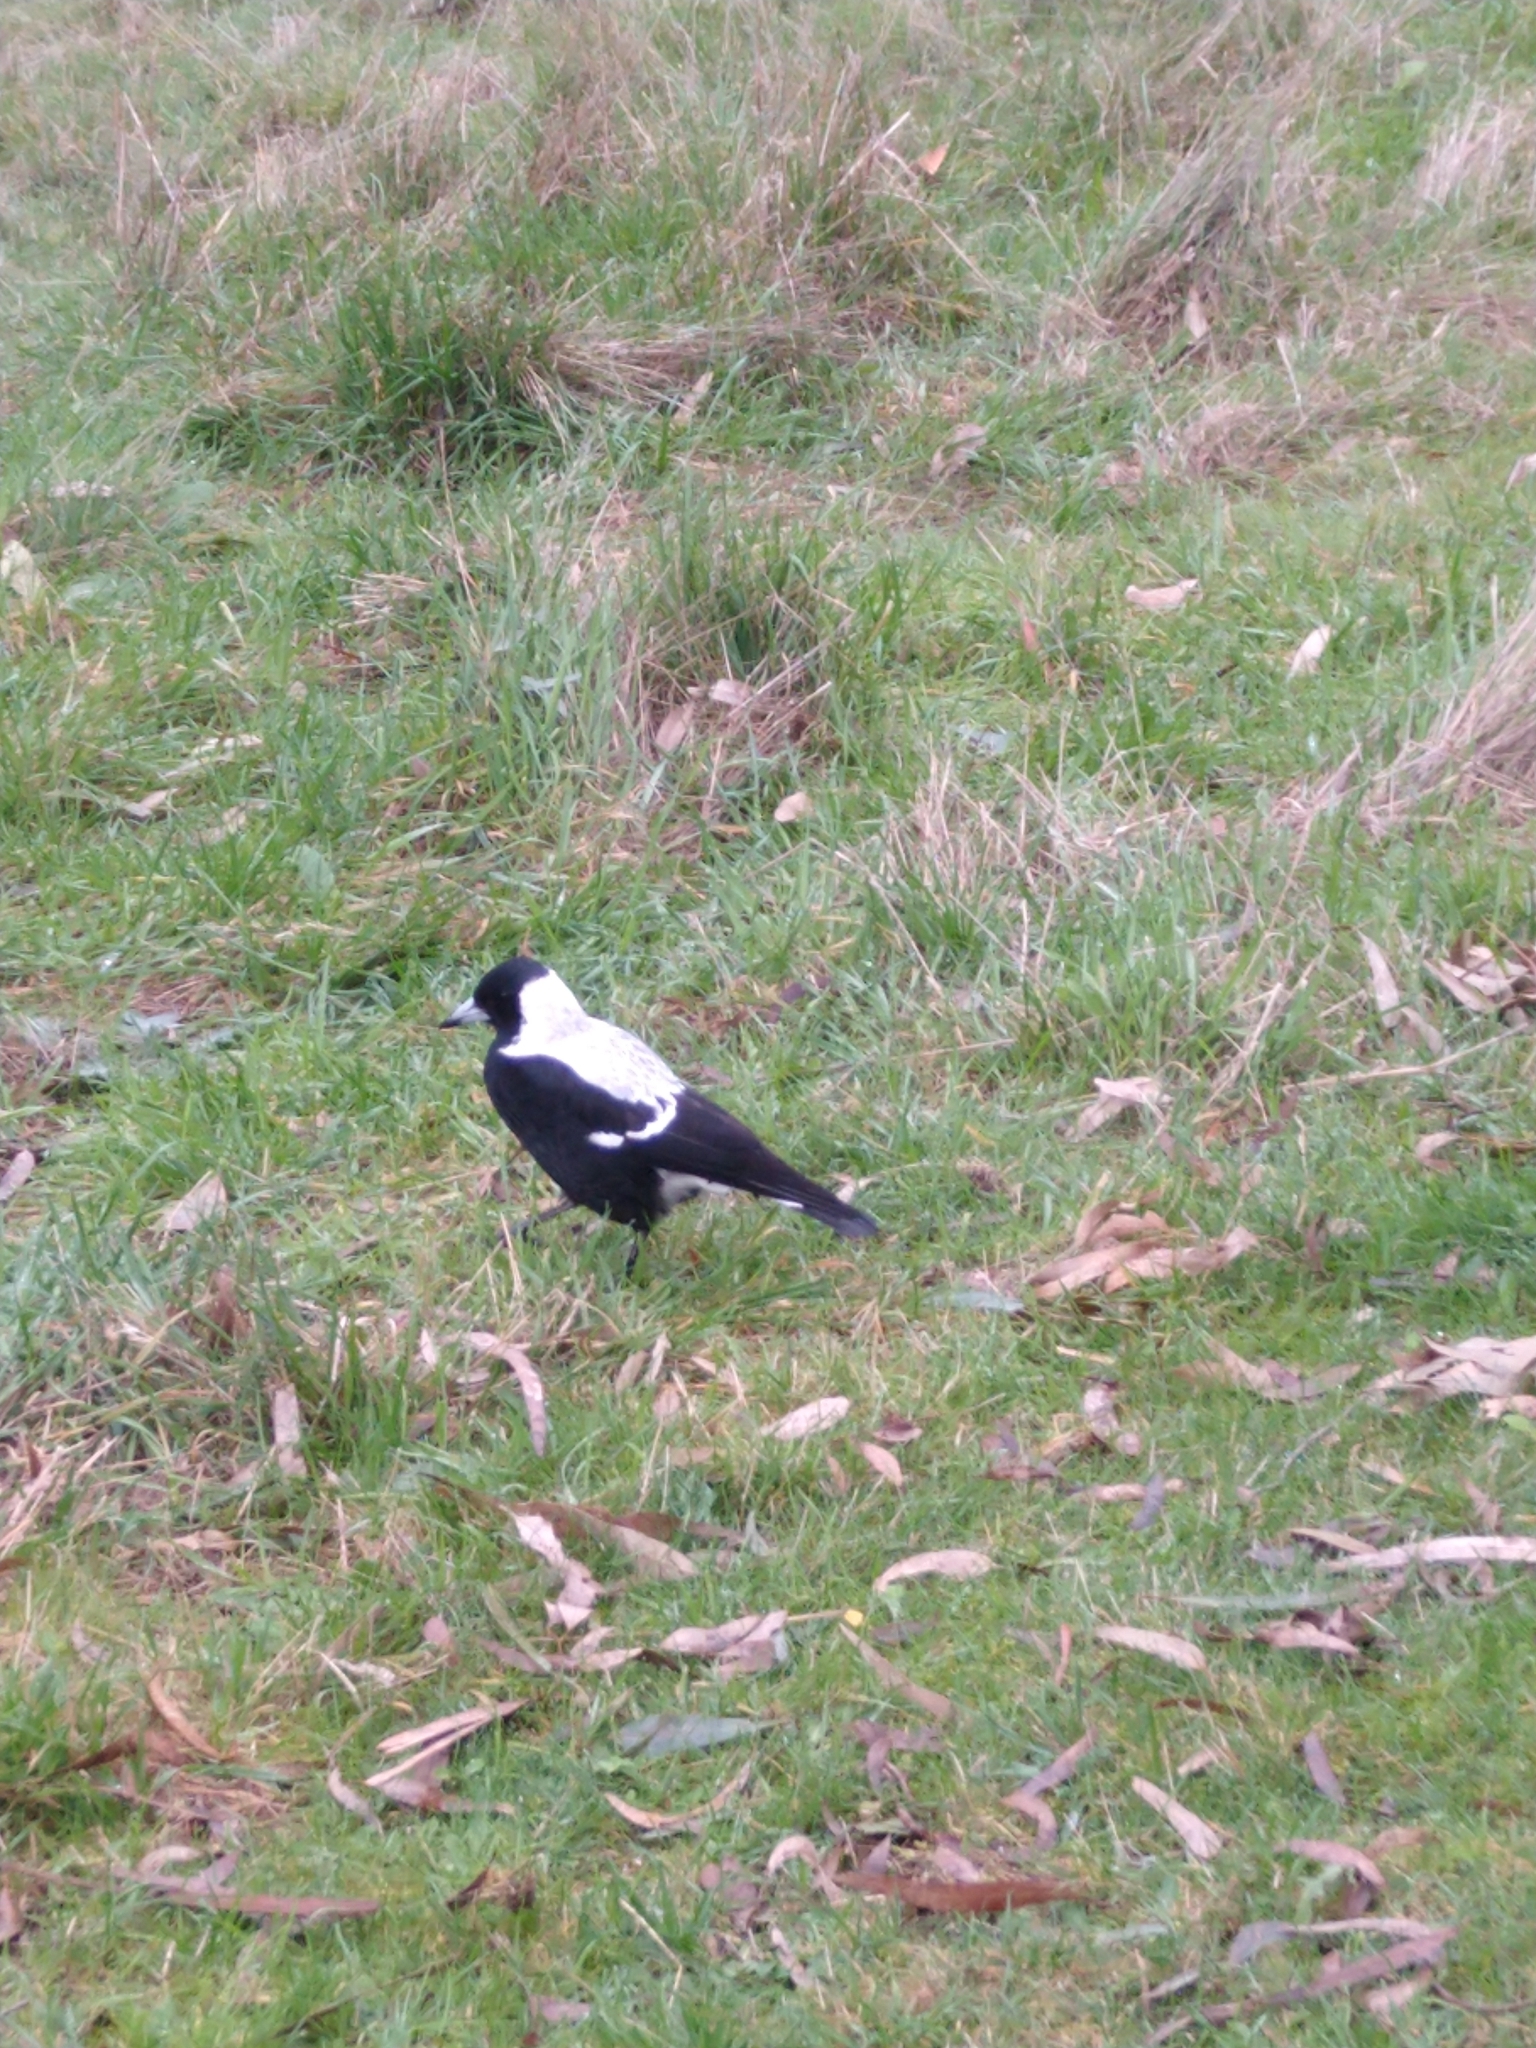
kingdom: Animalia
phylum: Chordata
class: Aves
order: Passeriformes
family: Cracticidae
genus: Gymnorhina
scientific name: Gymnorhina tibicen
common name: Australian magpie
